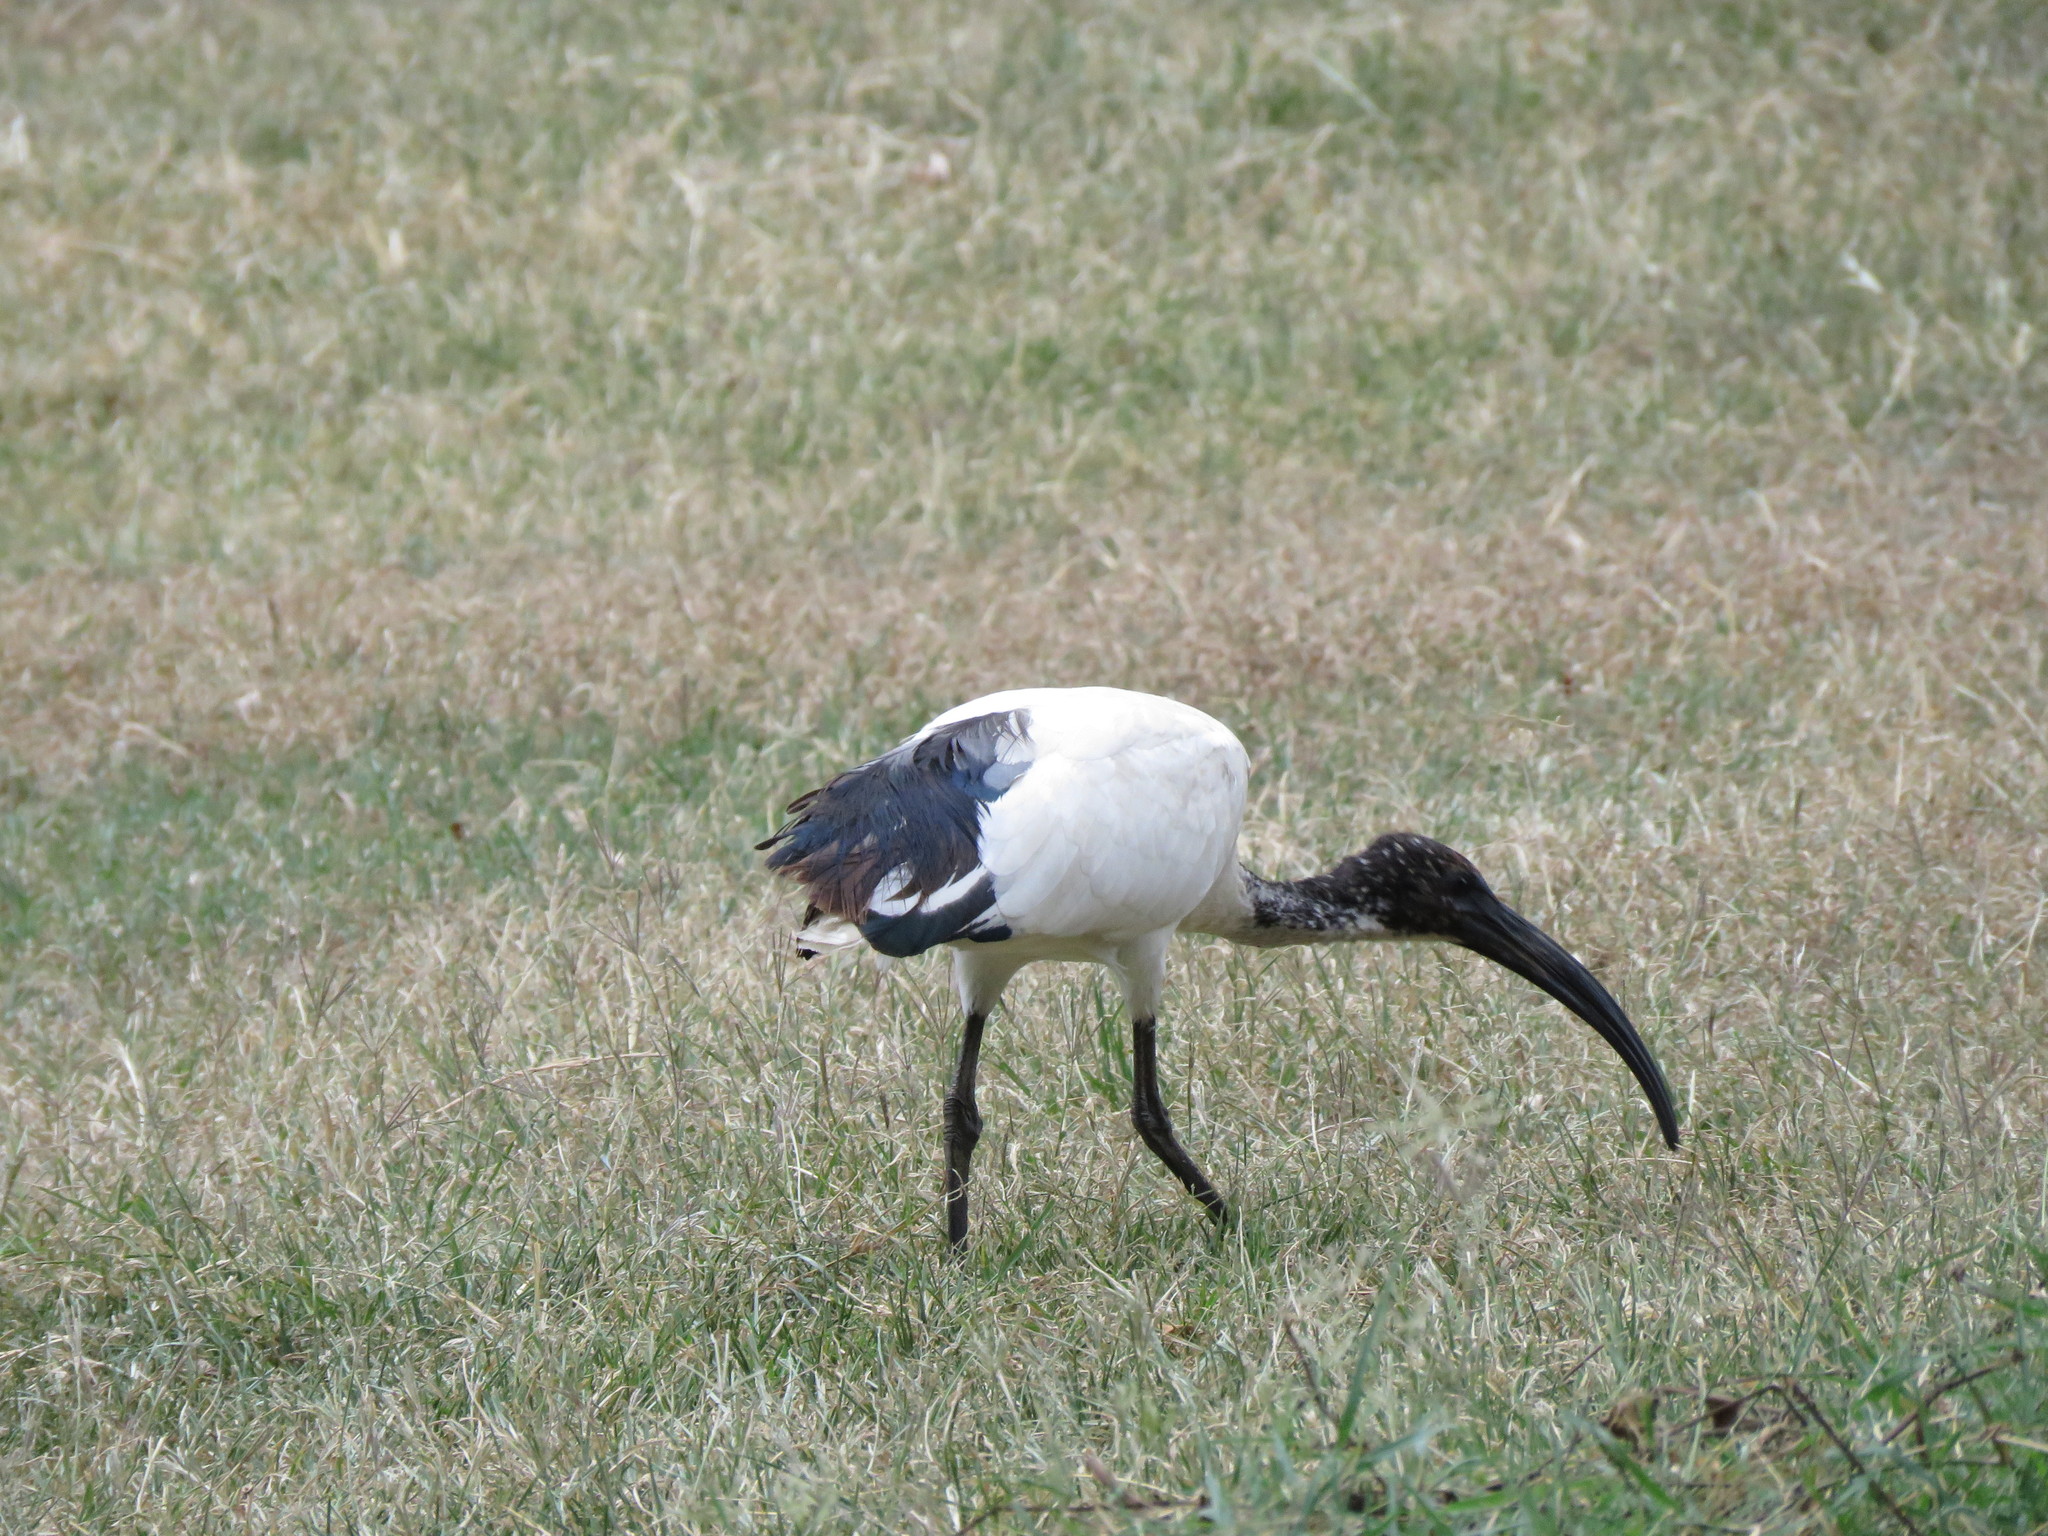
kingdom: Animalia
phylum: Chordata
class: Aves
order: Pelecaniformes
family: Threskiornithidae
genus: Threskiornis
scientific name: Threskiornis aethiopicus
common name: Sacred ibis
